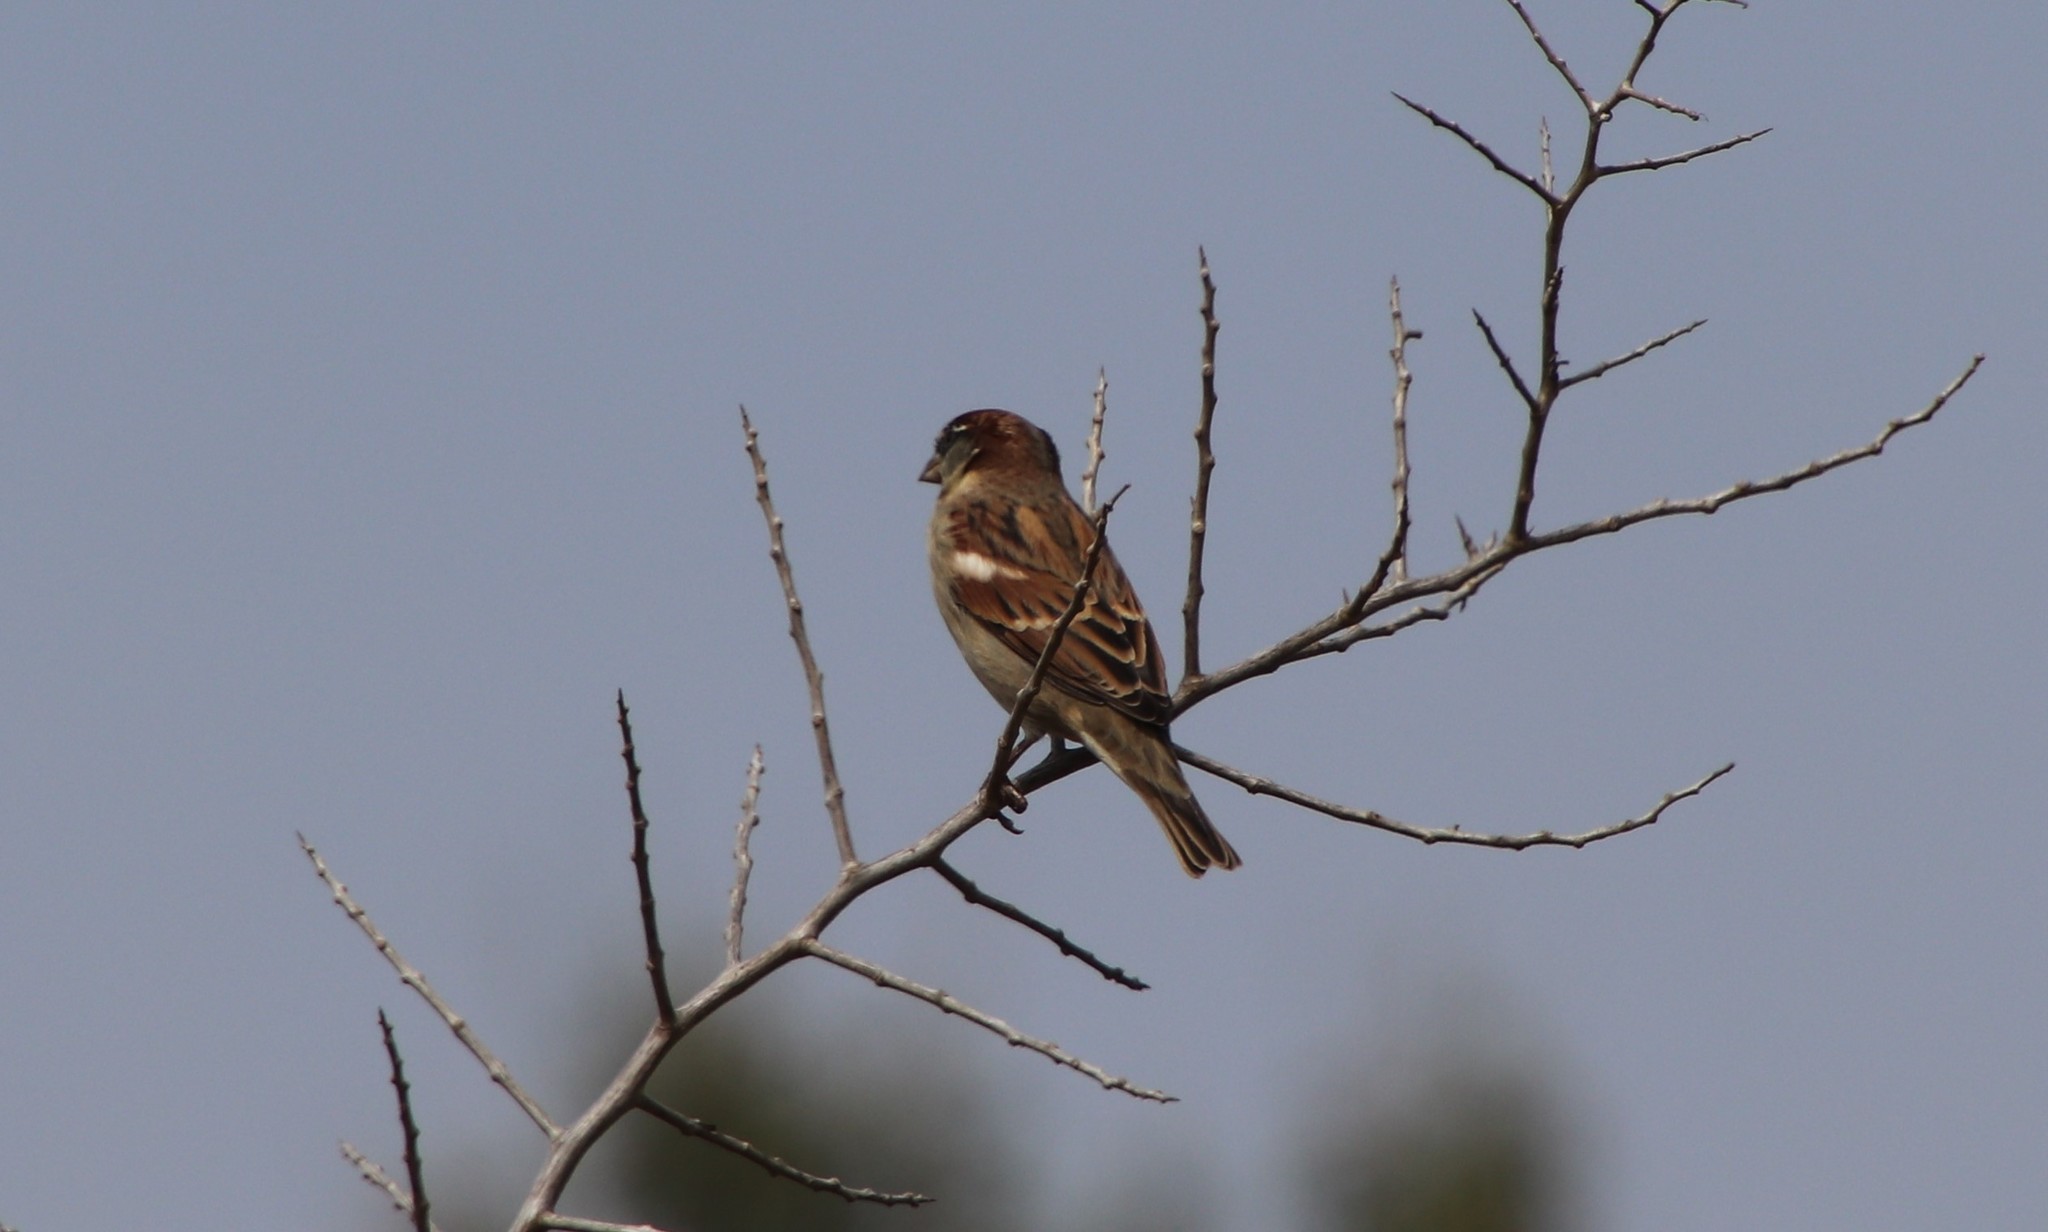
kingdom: Animalia
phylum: Chordata
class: Aves
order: Passeriformes
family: Passeridae
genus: Passer
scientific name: Passer domesticus
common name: House sparrow
